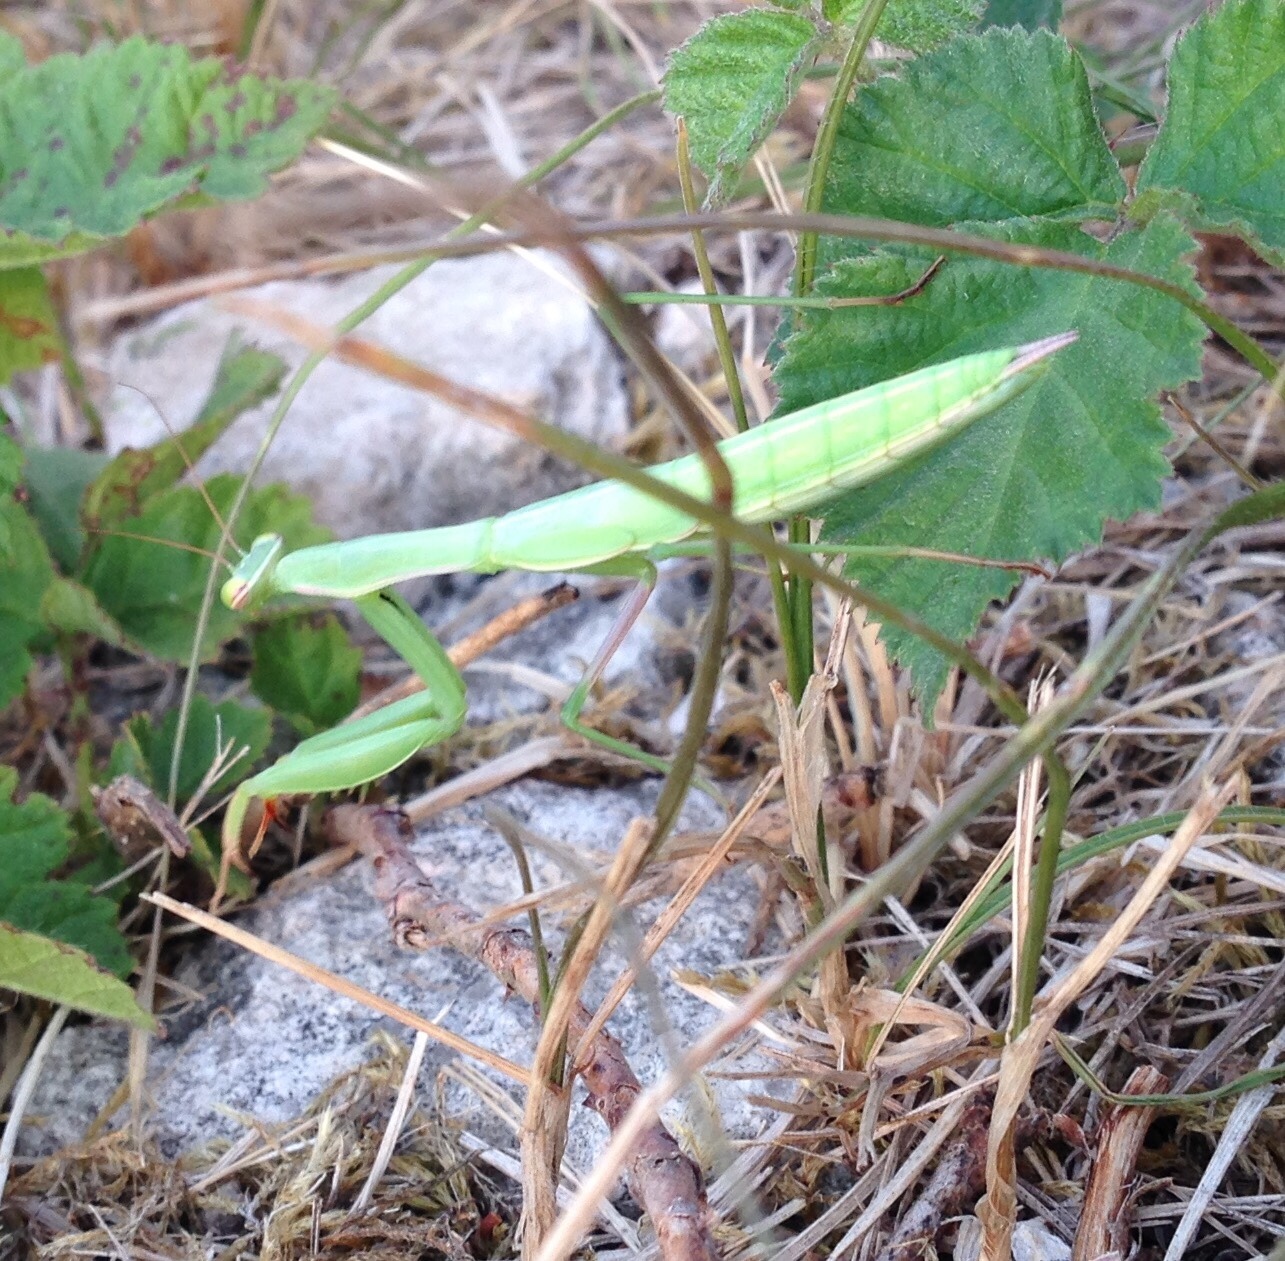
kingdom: Animalia
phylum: Arthropoda
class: Insecta
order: Mantodea
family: Mantidae
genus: Mantis
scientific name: Mantis religiosa
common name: Praying mantis
